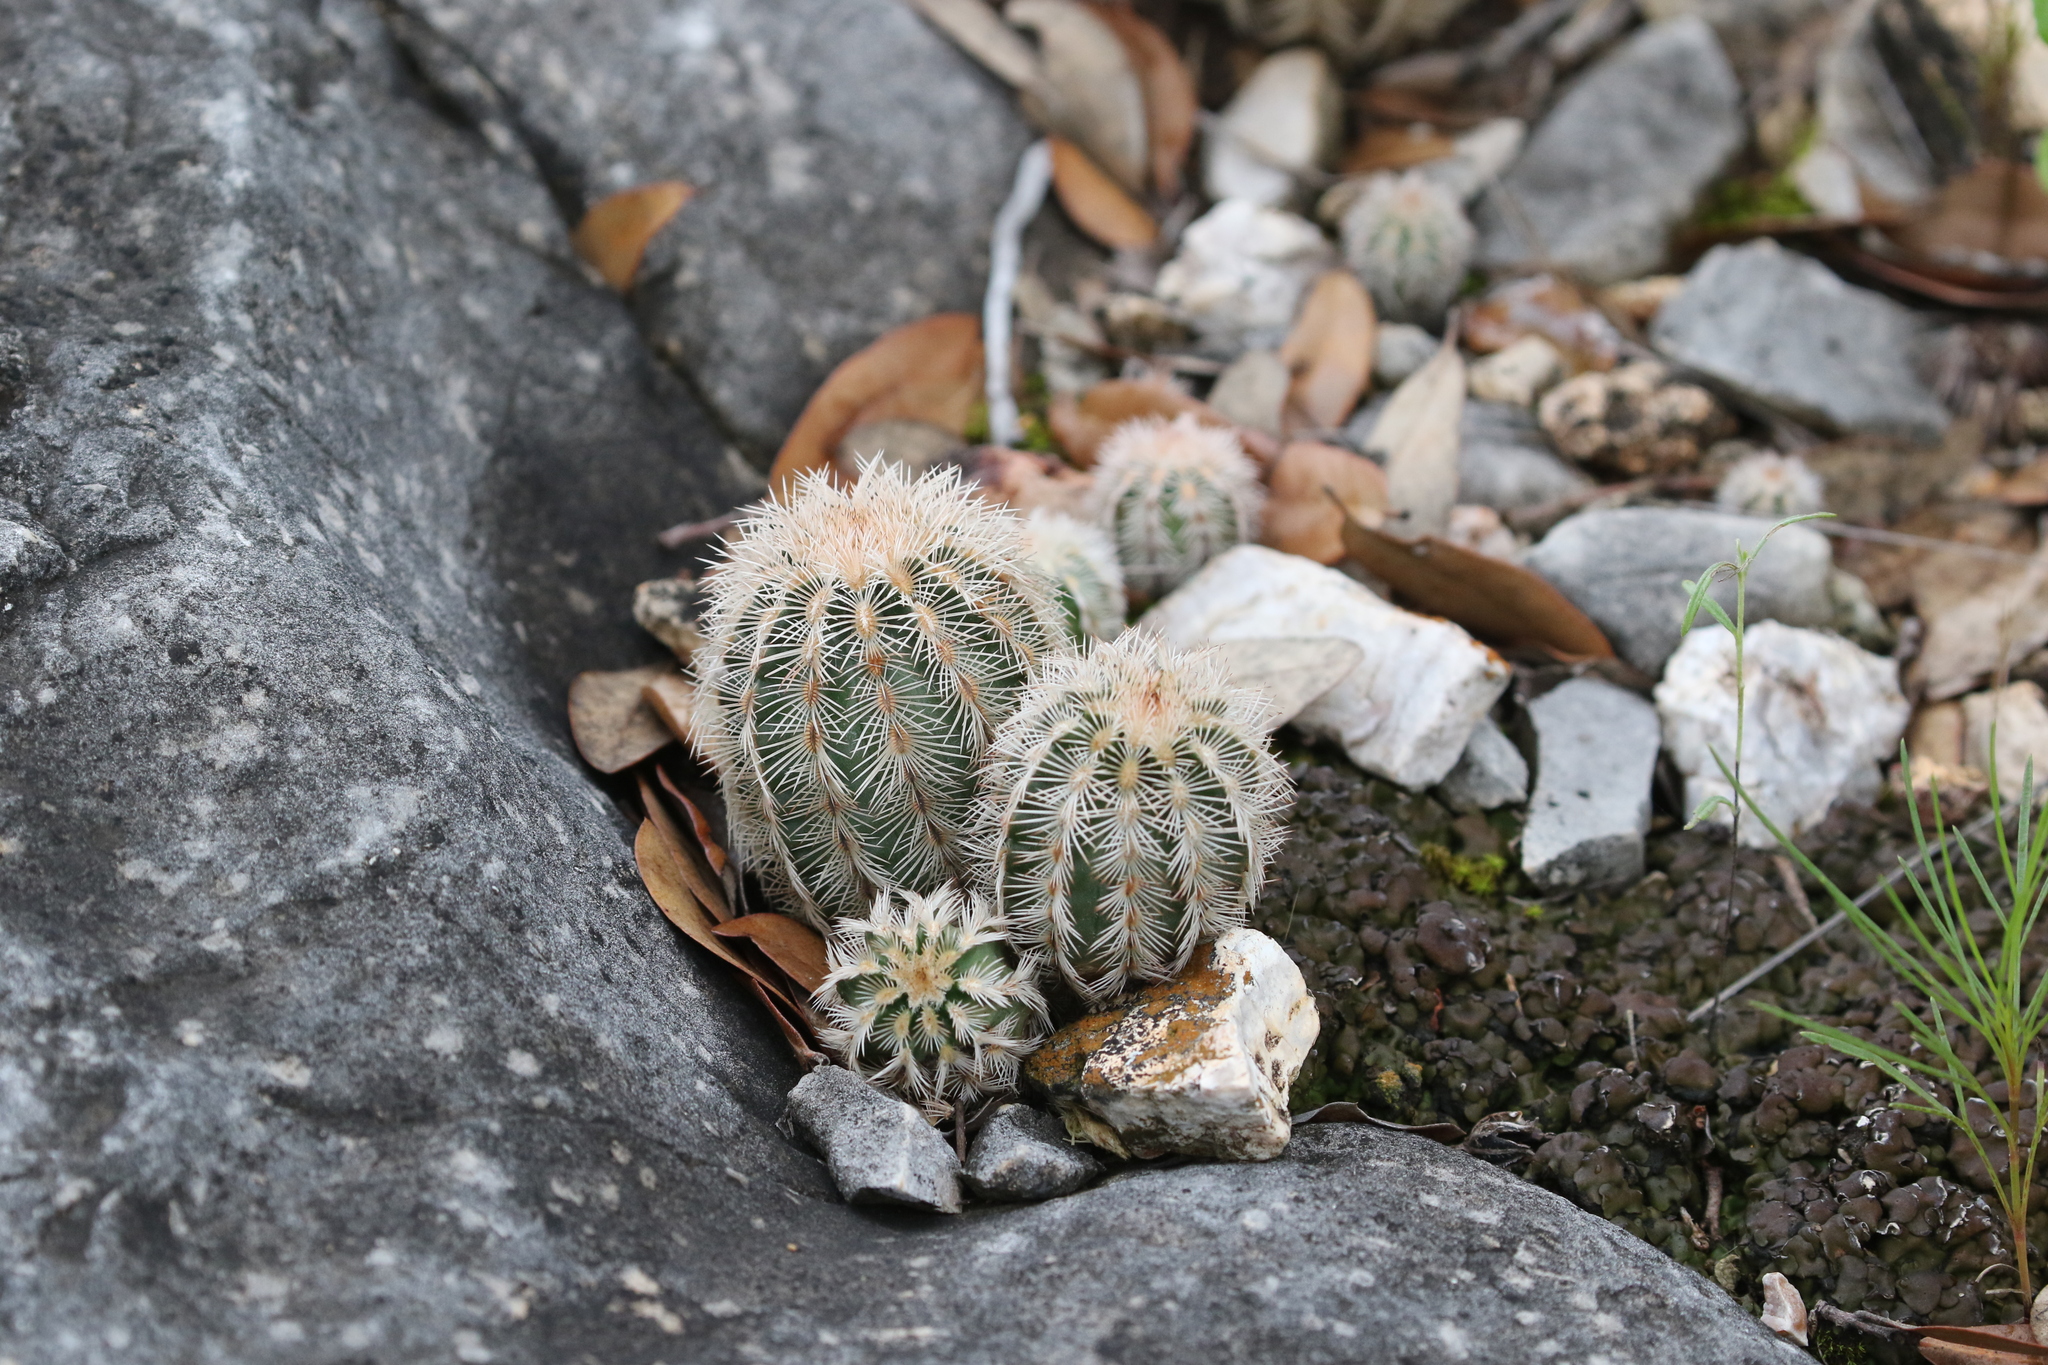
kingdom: Plantae
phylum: Tracheophyta
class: Magnoliopsida
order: Caryophyllales
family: Cactaceae
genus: Echinocereus
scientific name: Echinocereus reichenbachii
